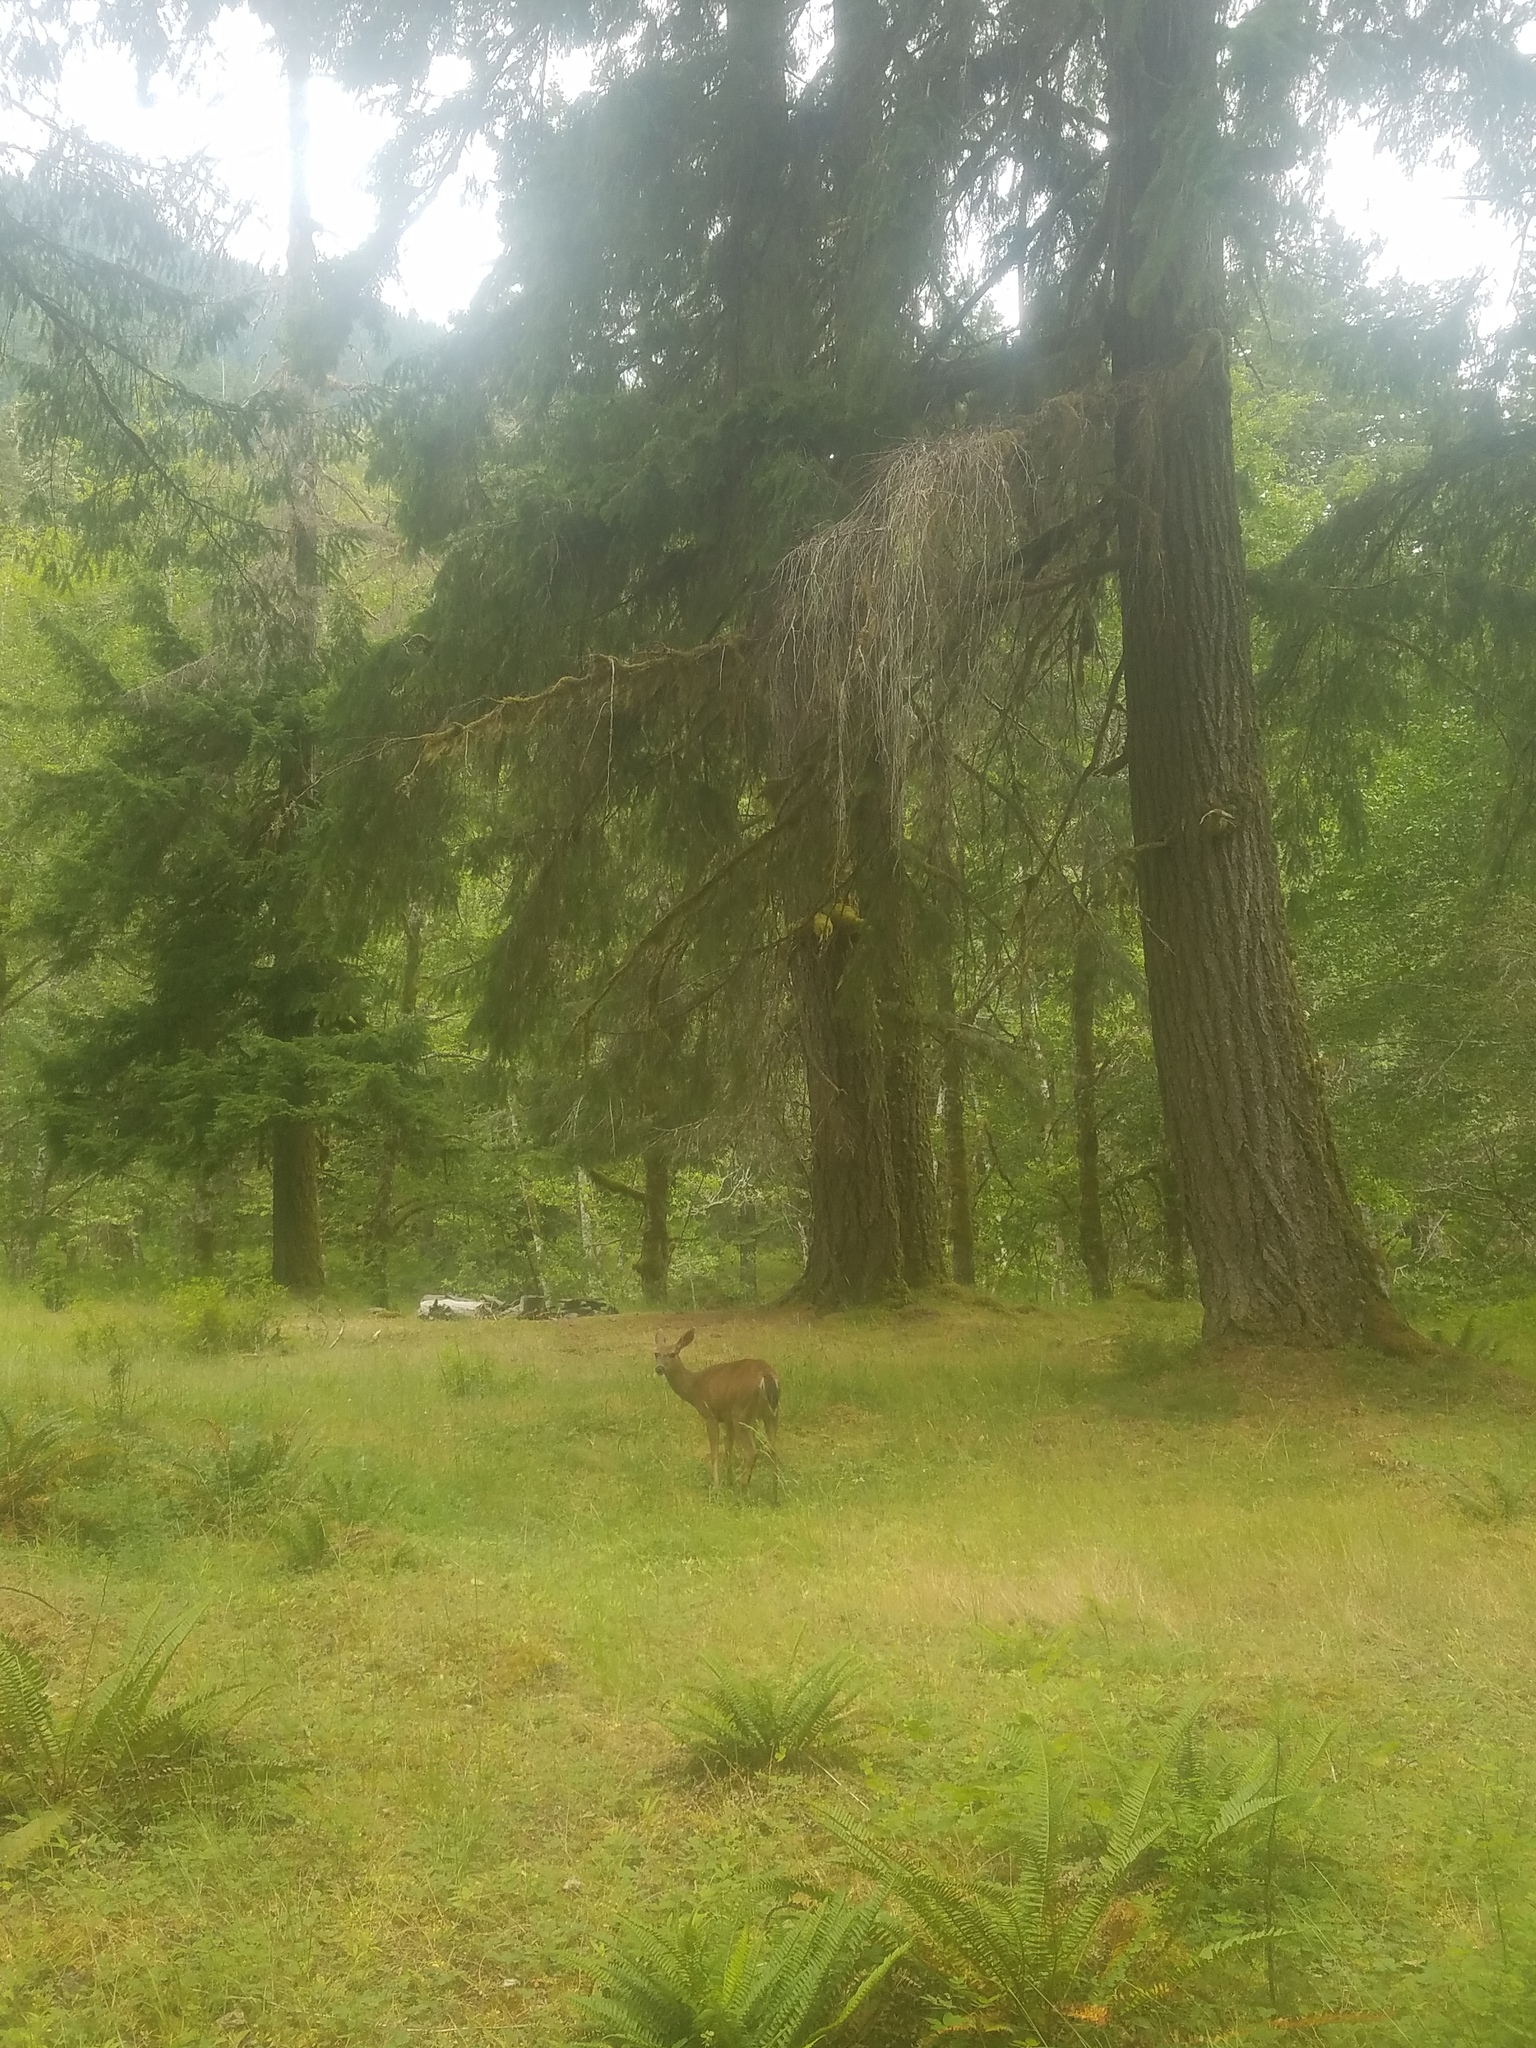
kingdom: Animalia
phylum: Chordata
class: Mammalia
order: Artiodactyla
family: Cervidae
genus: Odocoileus
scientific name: Odocoileus hemionus
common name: Mule deer
